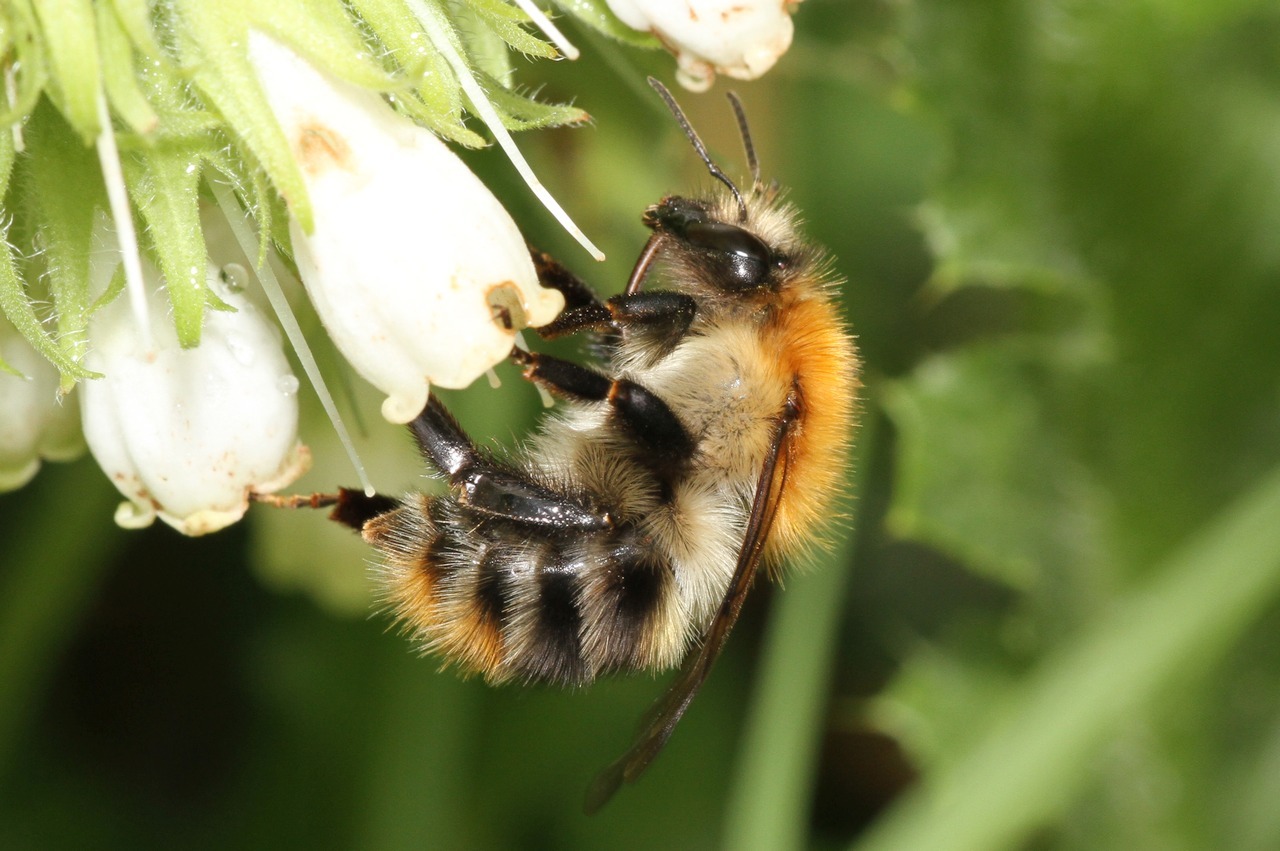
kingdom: Animalia
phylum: Arthropoda
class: Insecta
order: Hymenoptera
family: Apidae
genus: Bombus
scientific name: Bombus pascuorum
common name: Common carder bee
